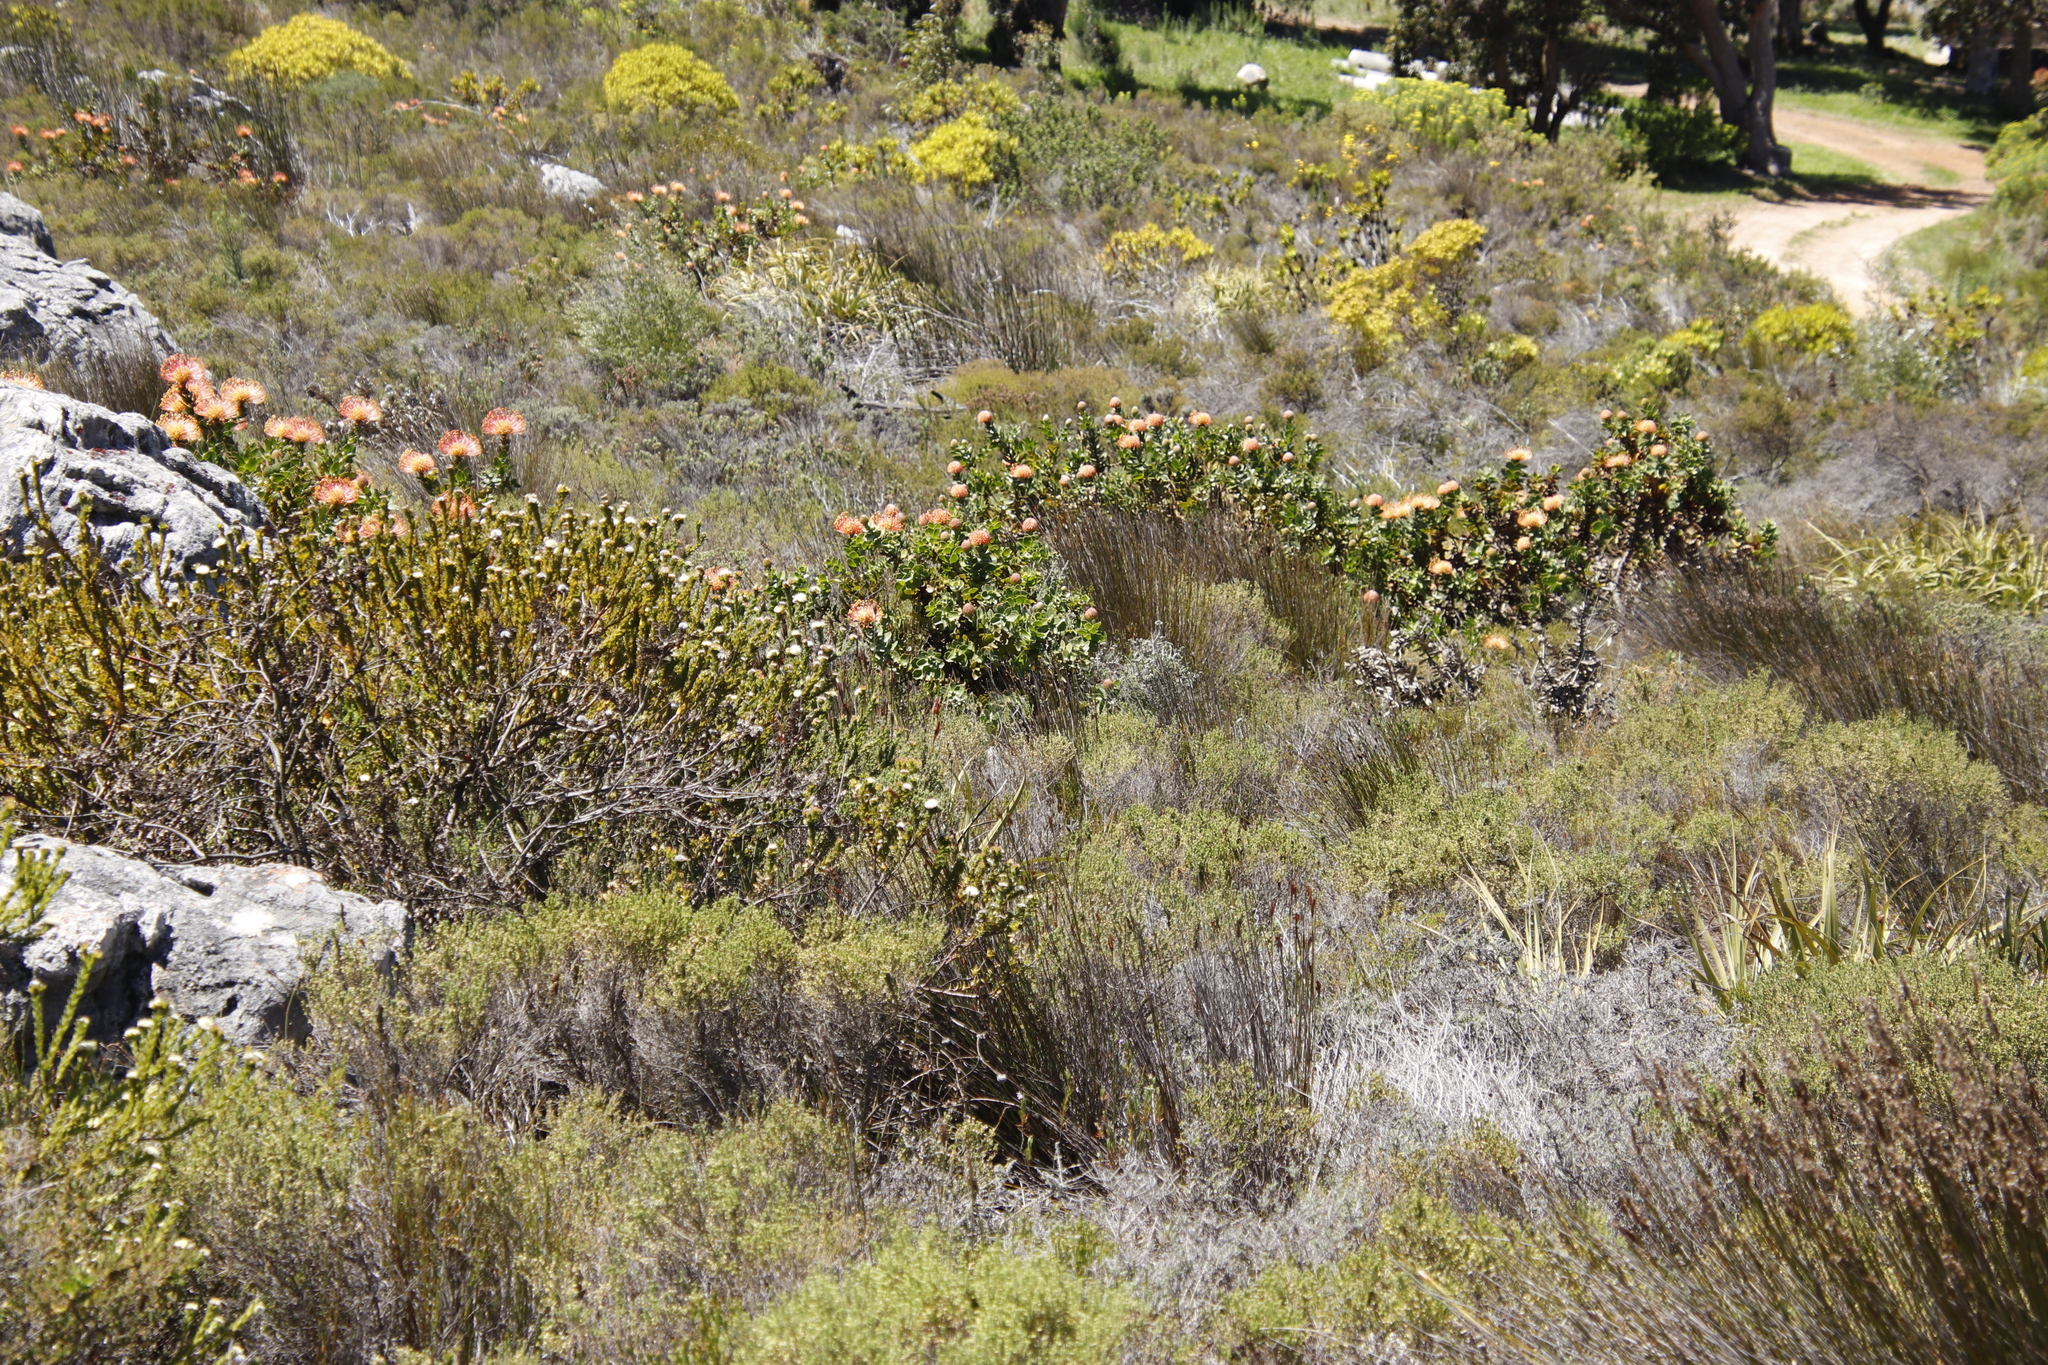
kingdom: Plantae
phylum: Tracheophyta
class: Magnoliopsida
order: Proteales
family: Proteaceae
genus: Leucospermum
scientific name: Leucospermum cordifolium
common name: Red pincushion-protea
